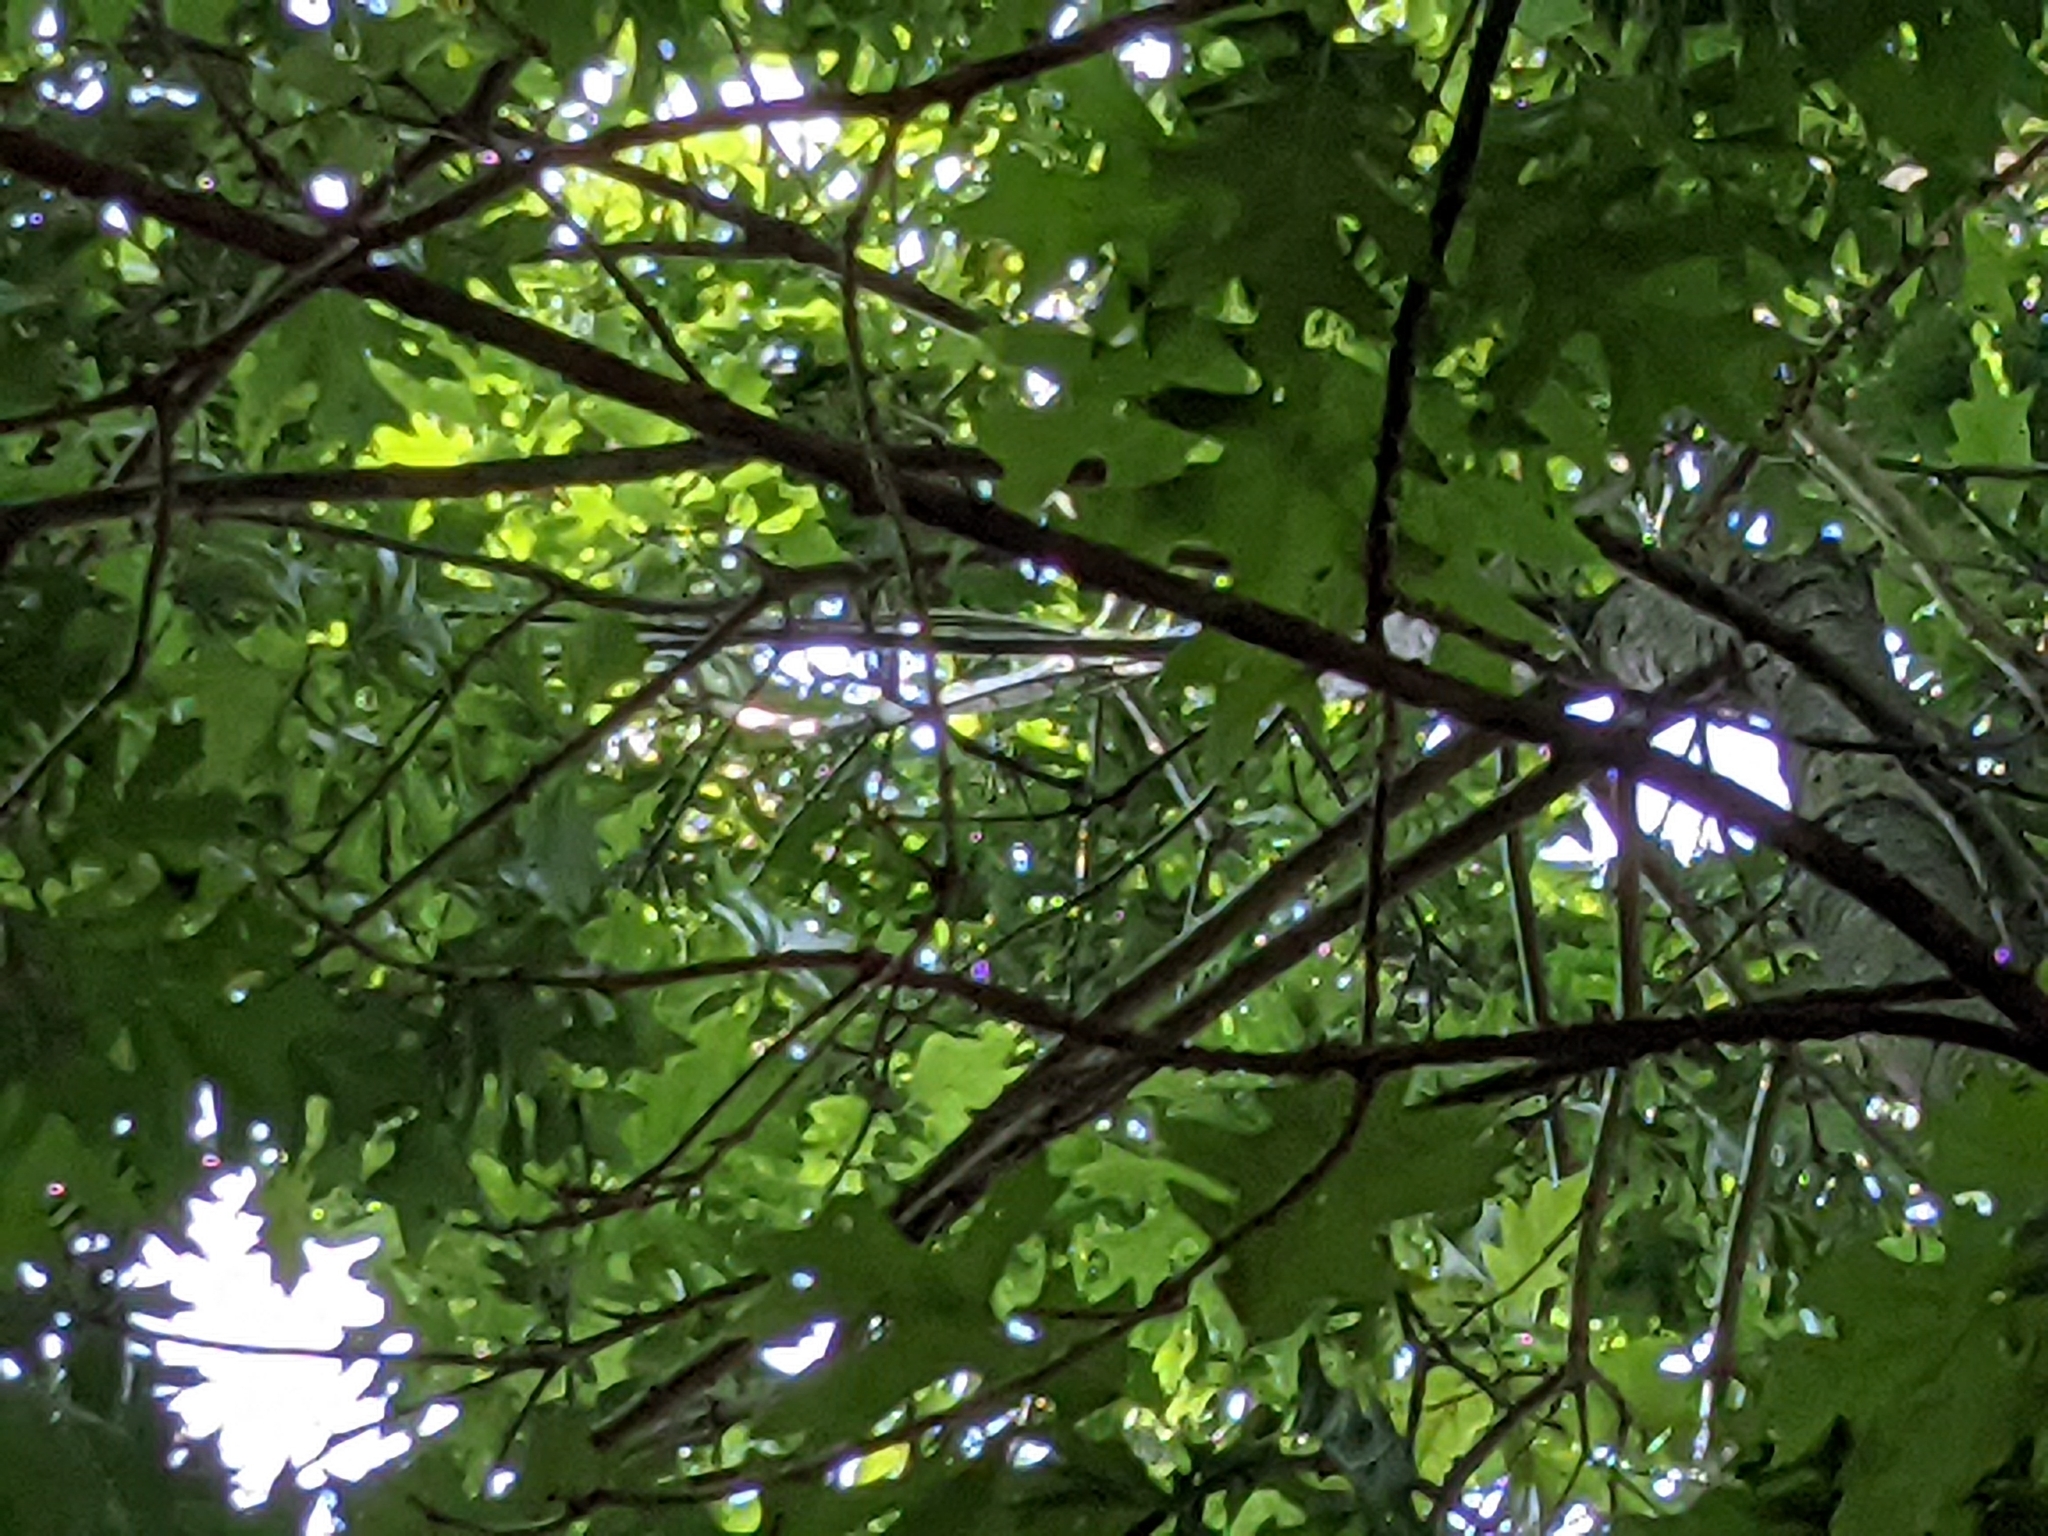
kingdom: Animalia
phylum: Chordata
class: Aves
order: Passeriformes
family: Corvidae
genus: Garrulus
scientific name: Garrulus glandarius
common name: Eurasian jay
